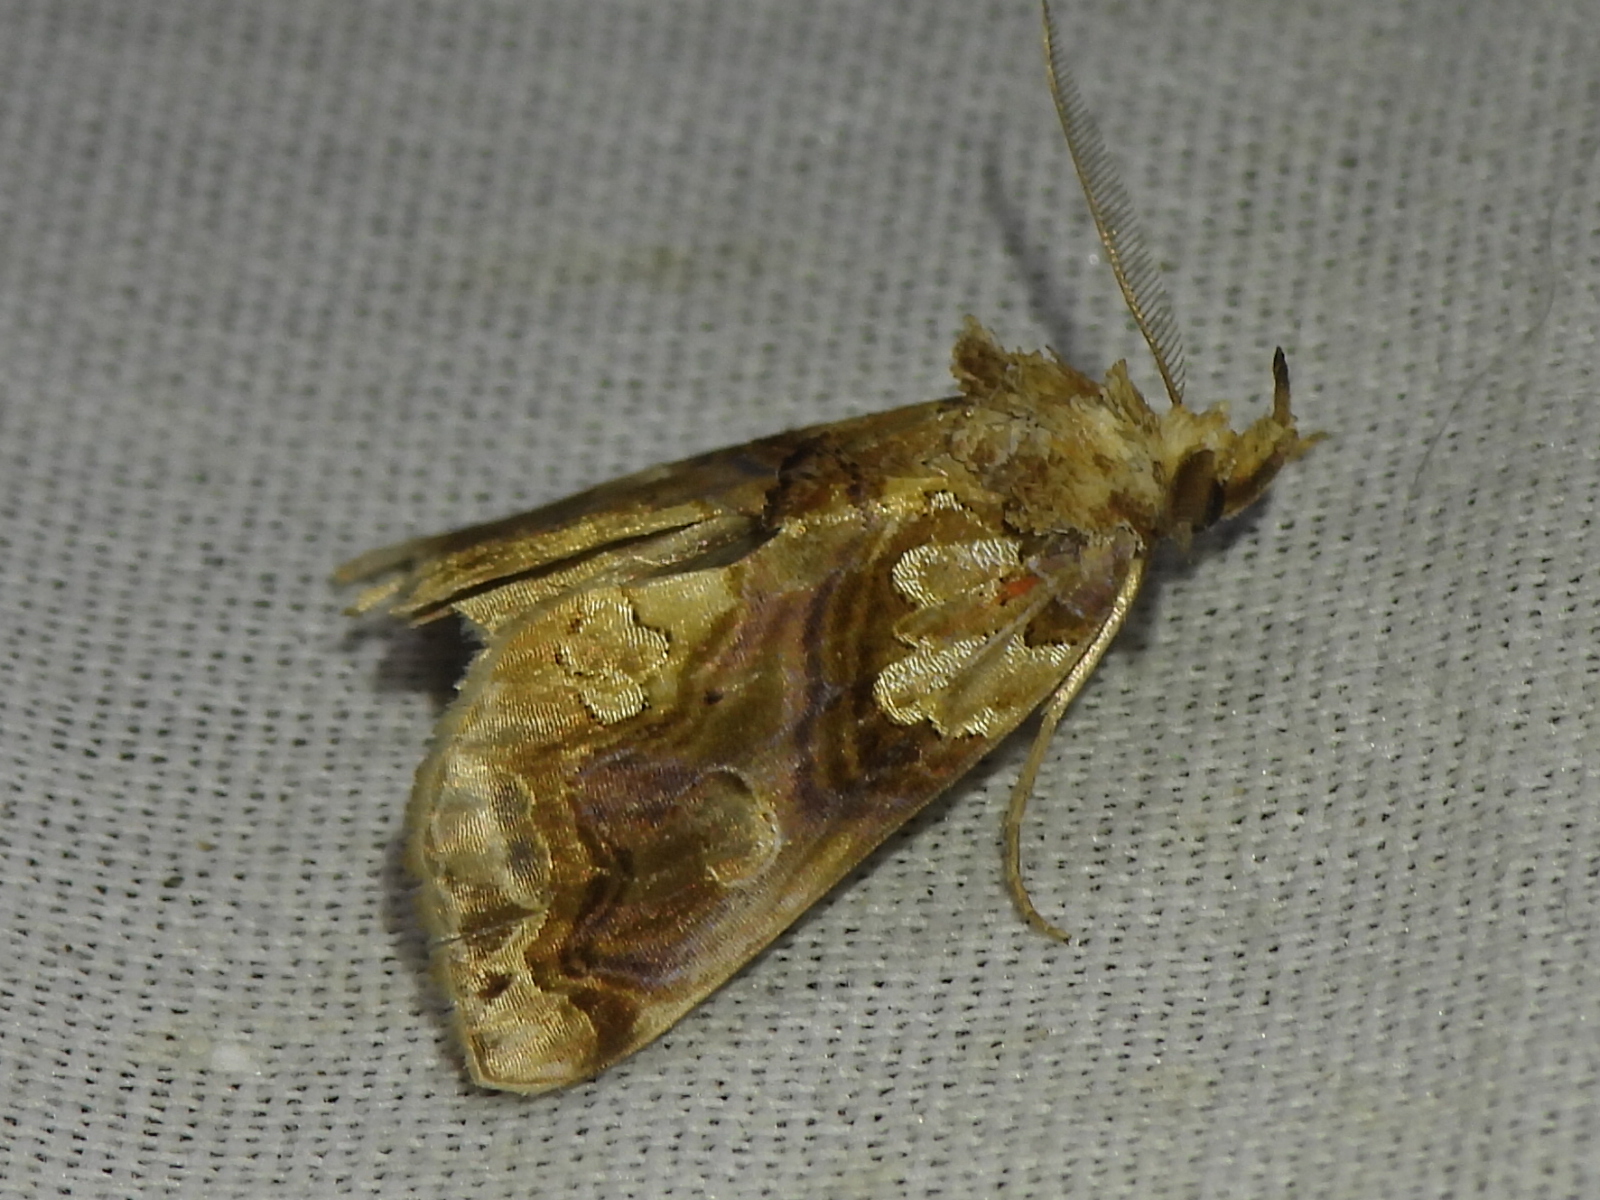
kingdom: Animalia
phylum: Arthropoda
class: Insecta
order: Lepidoptera
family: Erebidae
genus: Plusiodonta
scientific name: Plusiodonta compressipalpis
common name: Moonseed moth
